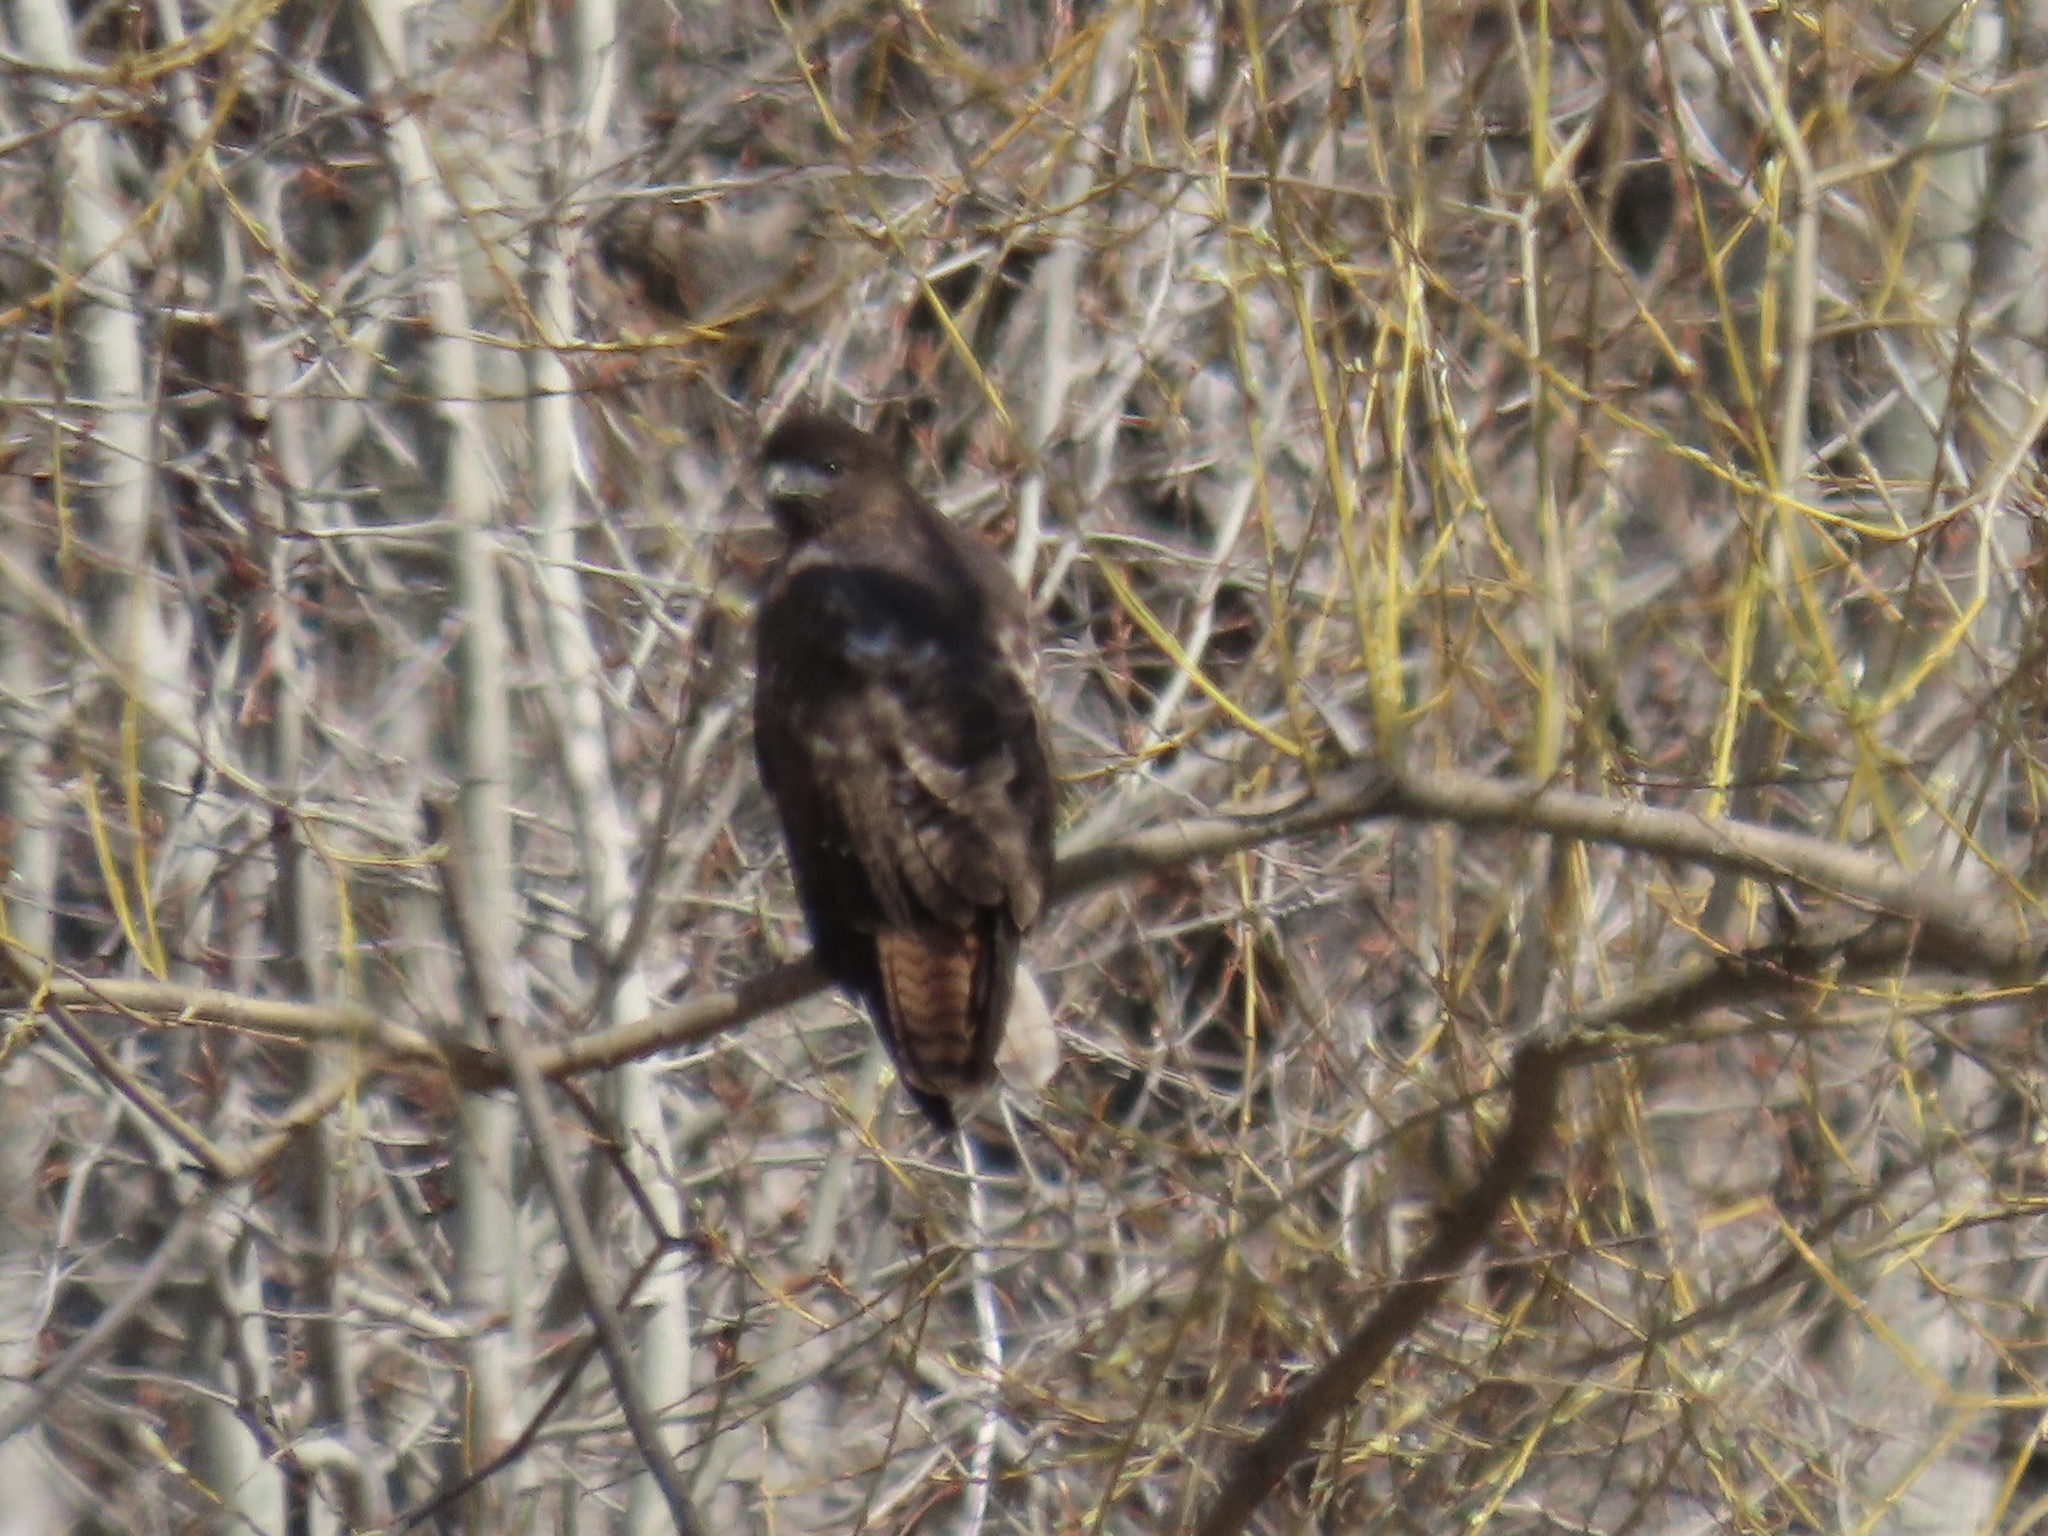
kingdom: Animalia
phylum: Chordata
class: Aves
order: Accipitriformes
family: Accipitridae
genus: Buteo
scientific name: Buteo jamaicensis
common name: Red-tailed hawk
